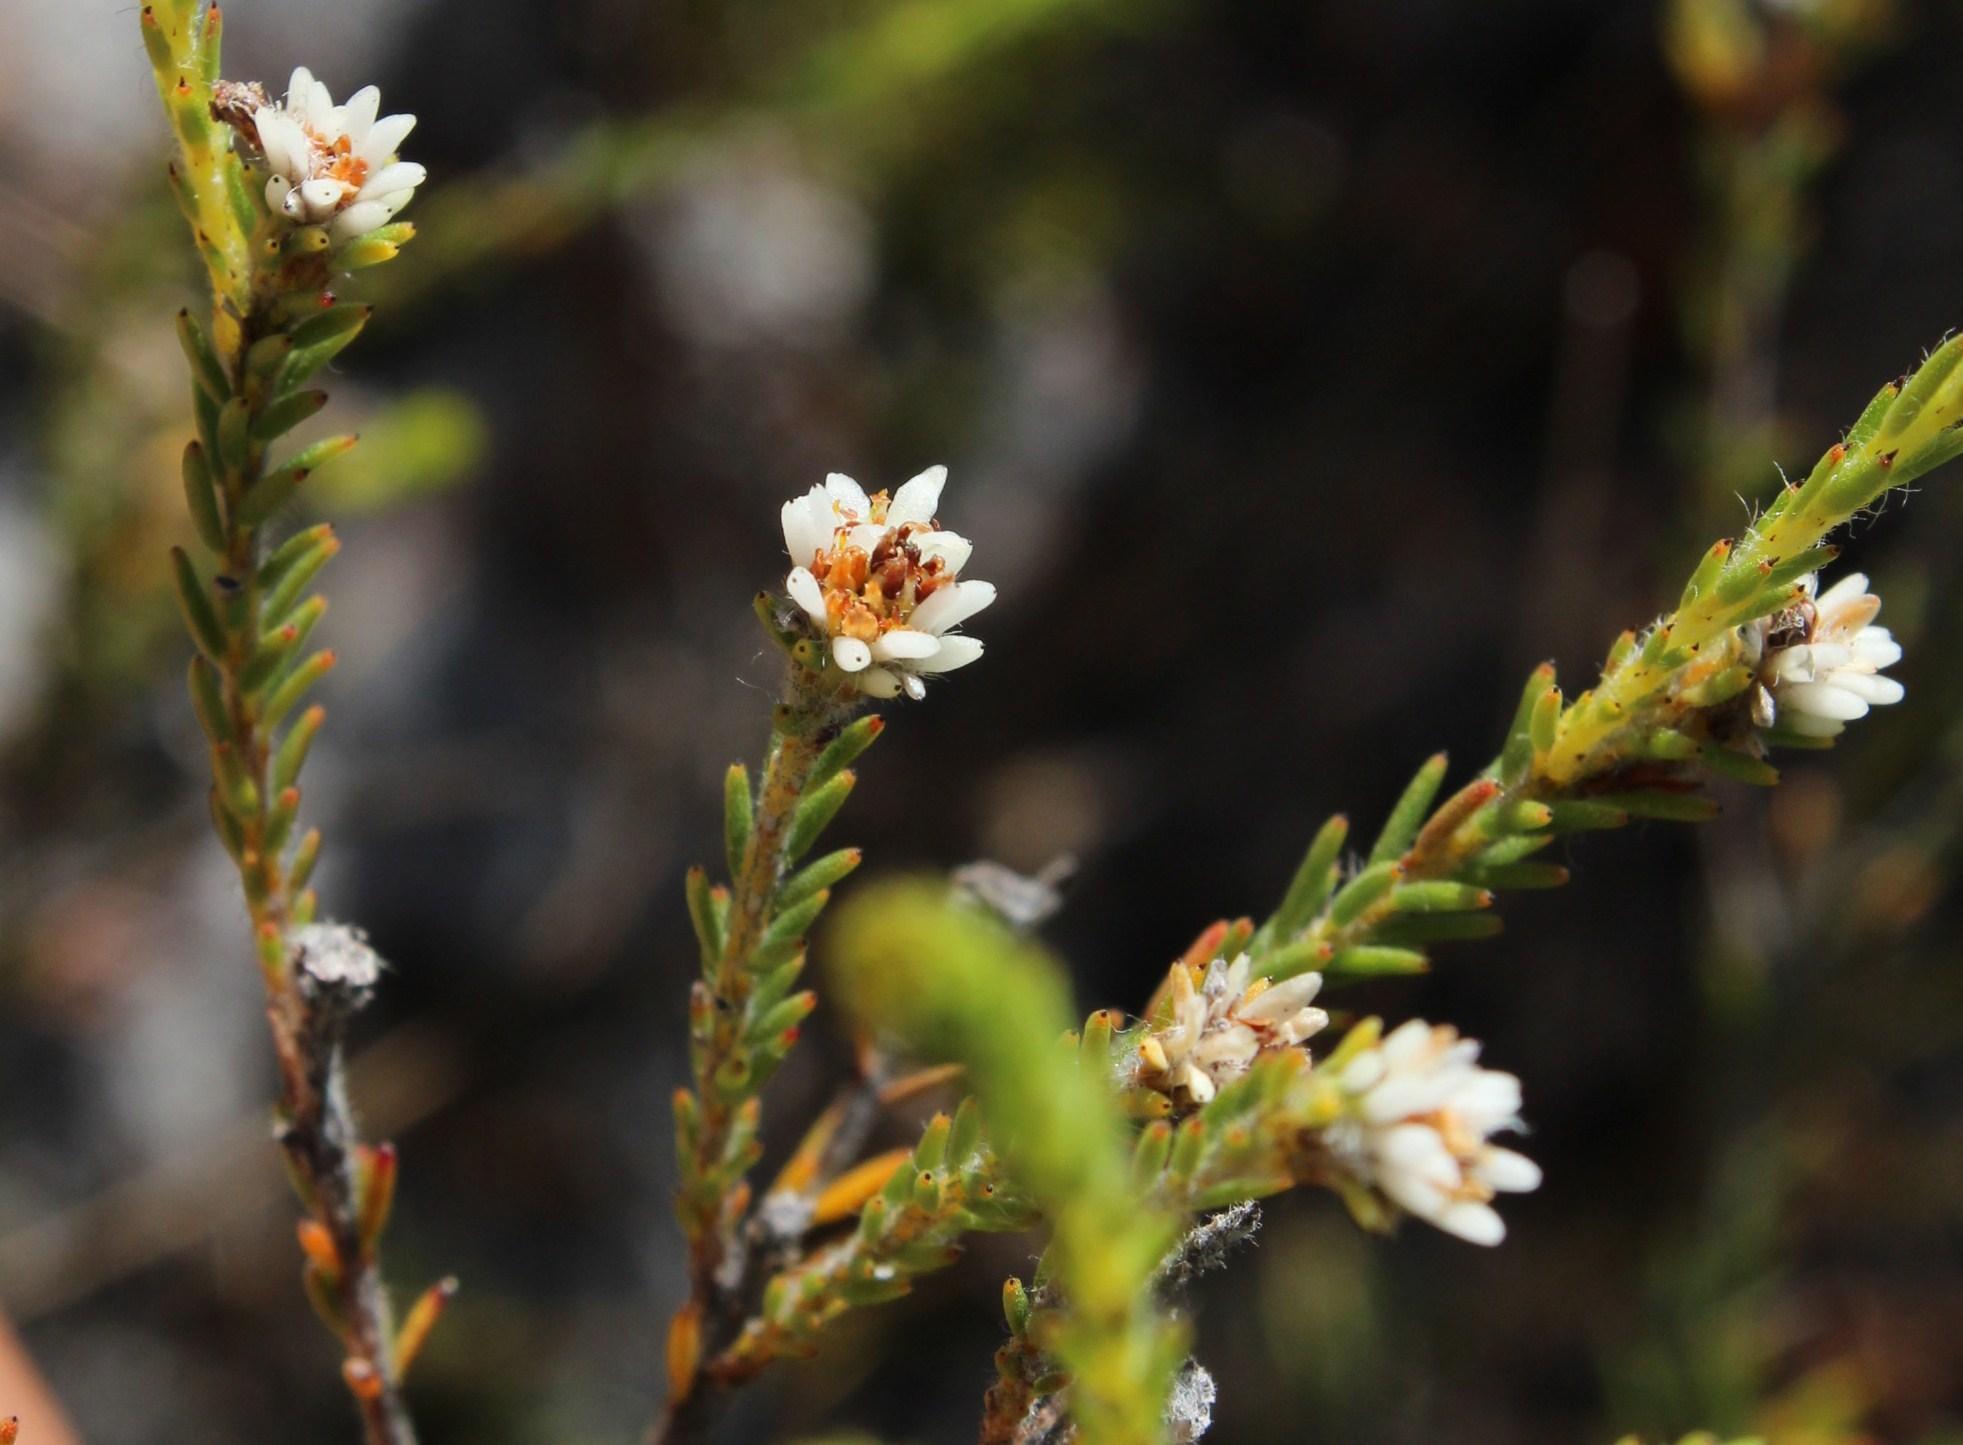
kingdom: Plantae
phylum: Tracheophyta
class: Magnoliopsida
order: Bruniales
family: Bruniaceae
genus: Staavia
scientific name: Staavia radiata
